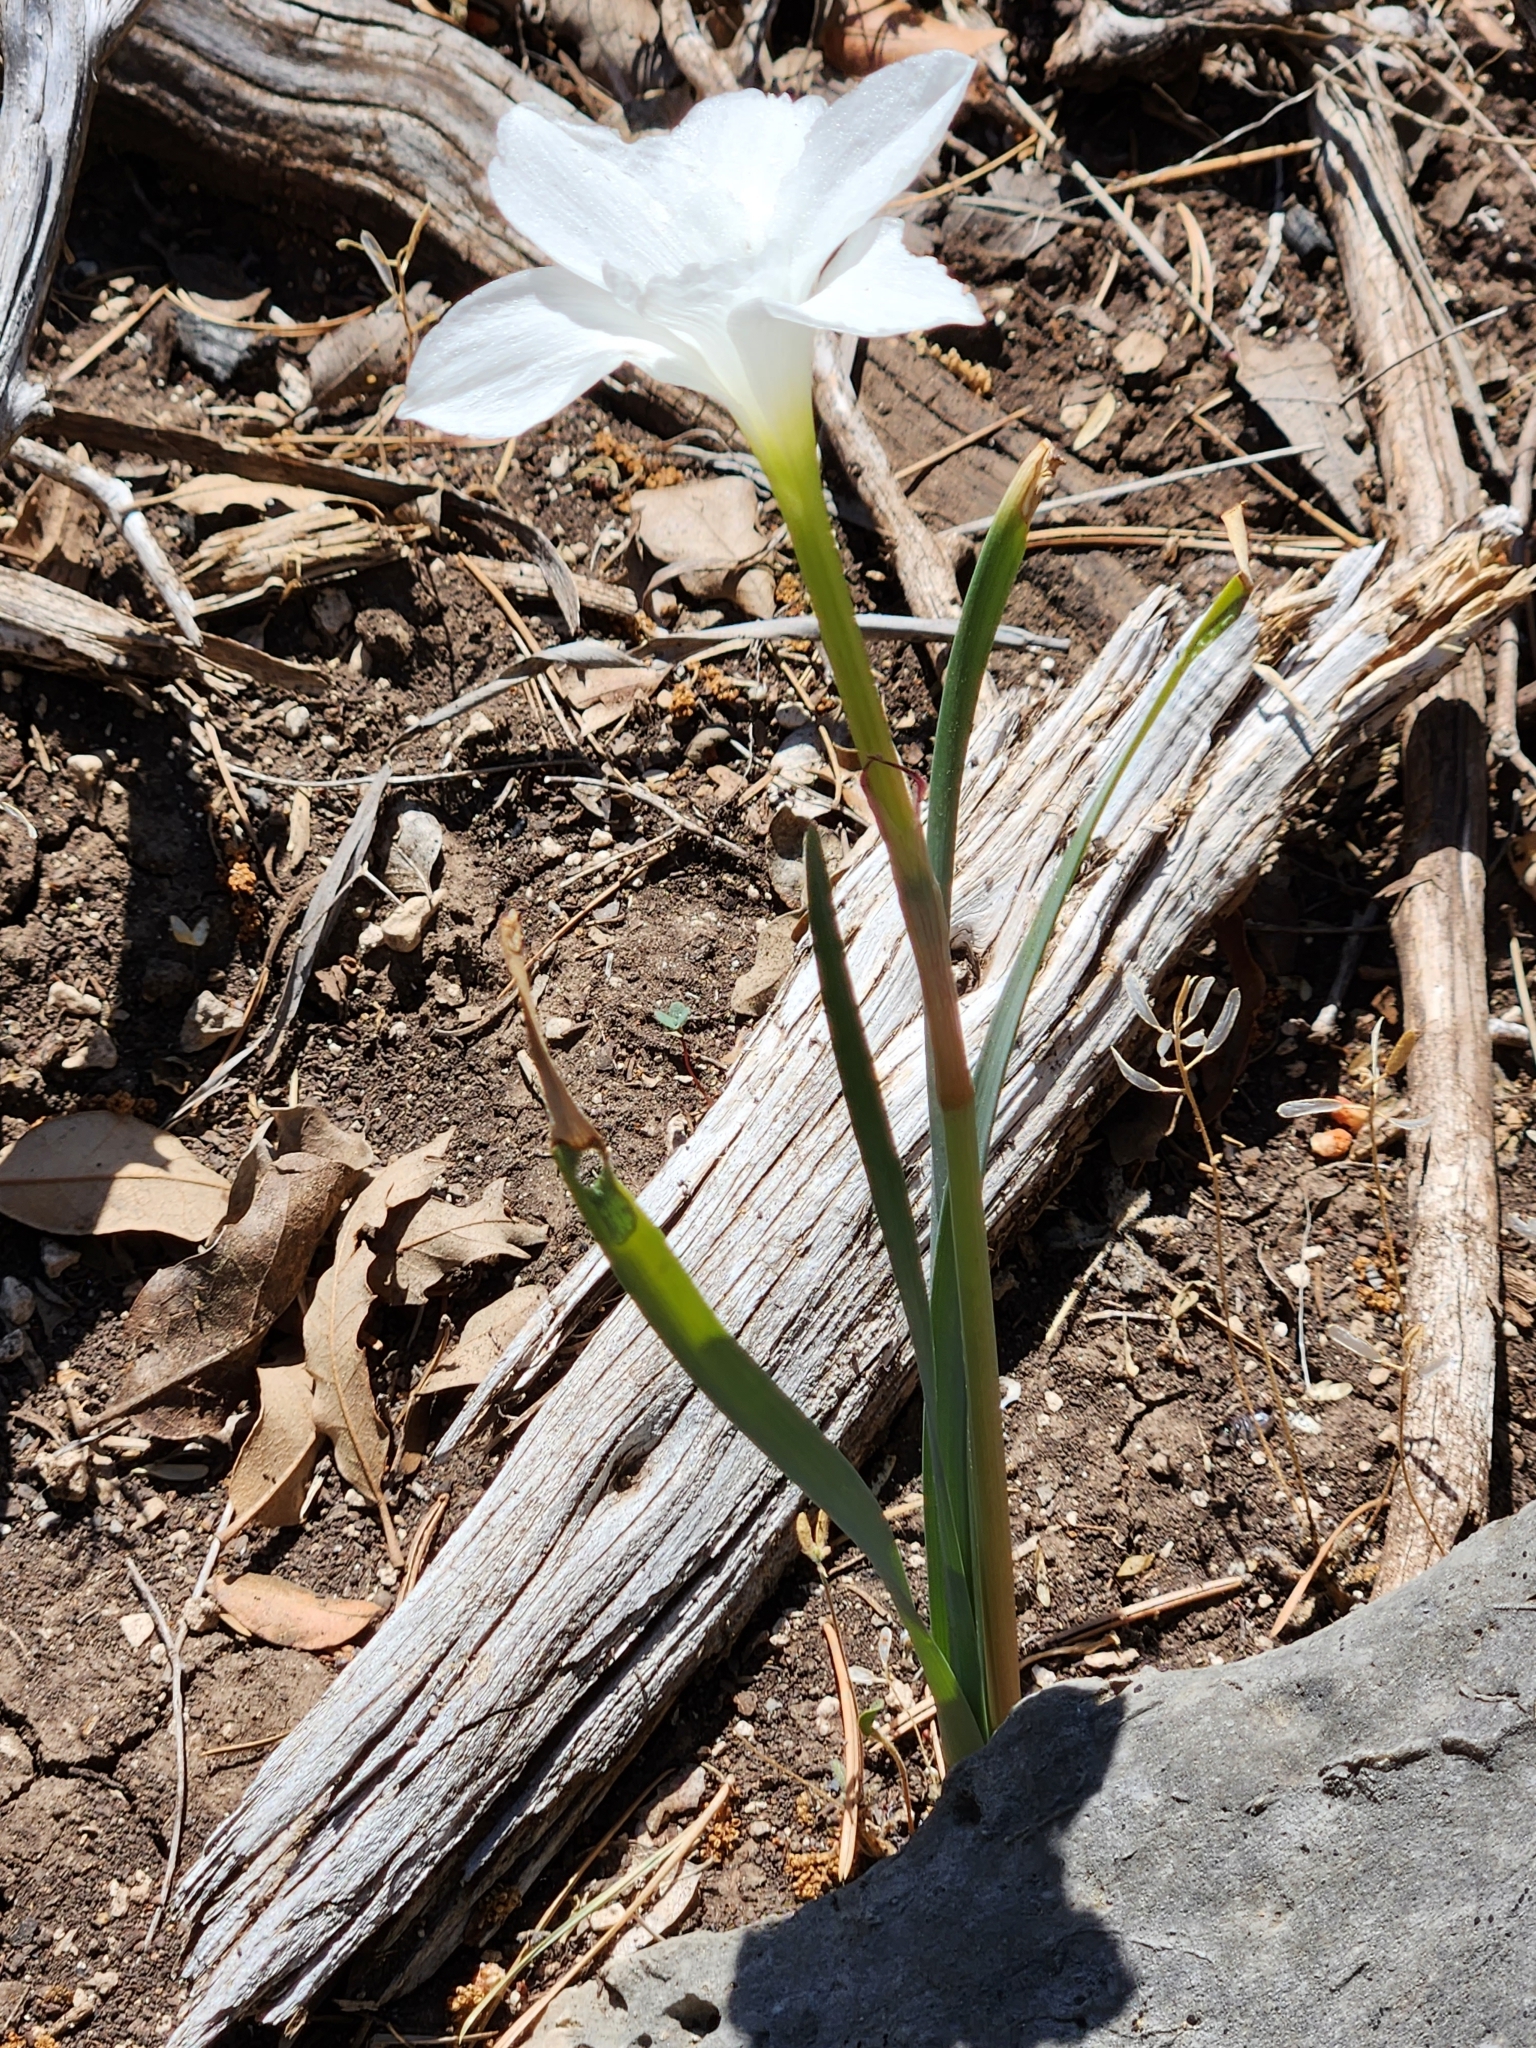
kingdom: Plantae
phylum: Tracheophyta
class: Liliopsida
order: Asparagales
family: Amaryllidaceae
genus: Zephyranthes
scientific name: Zephyranthes drummondii
